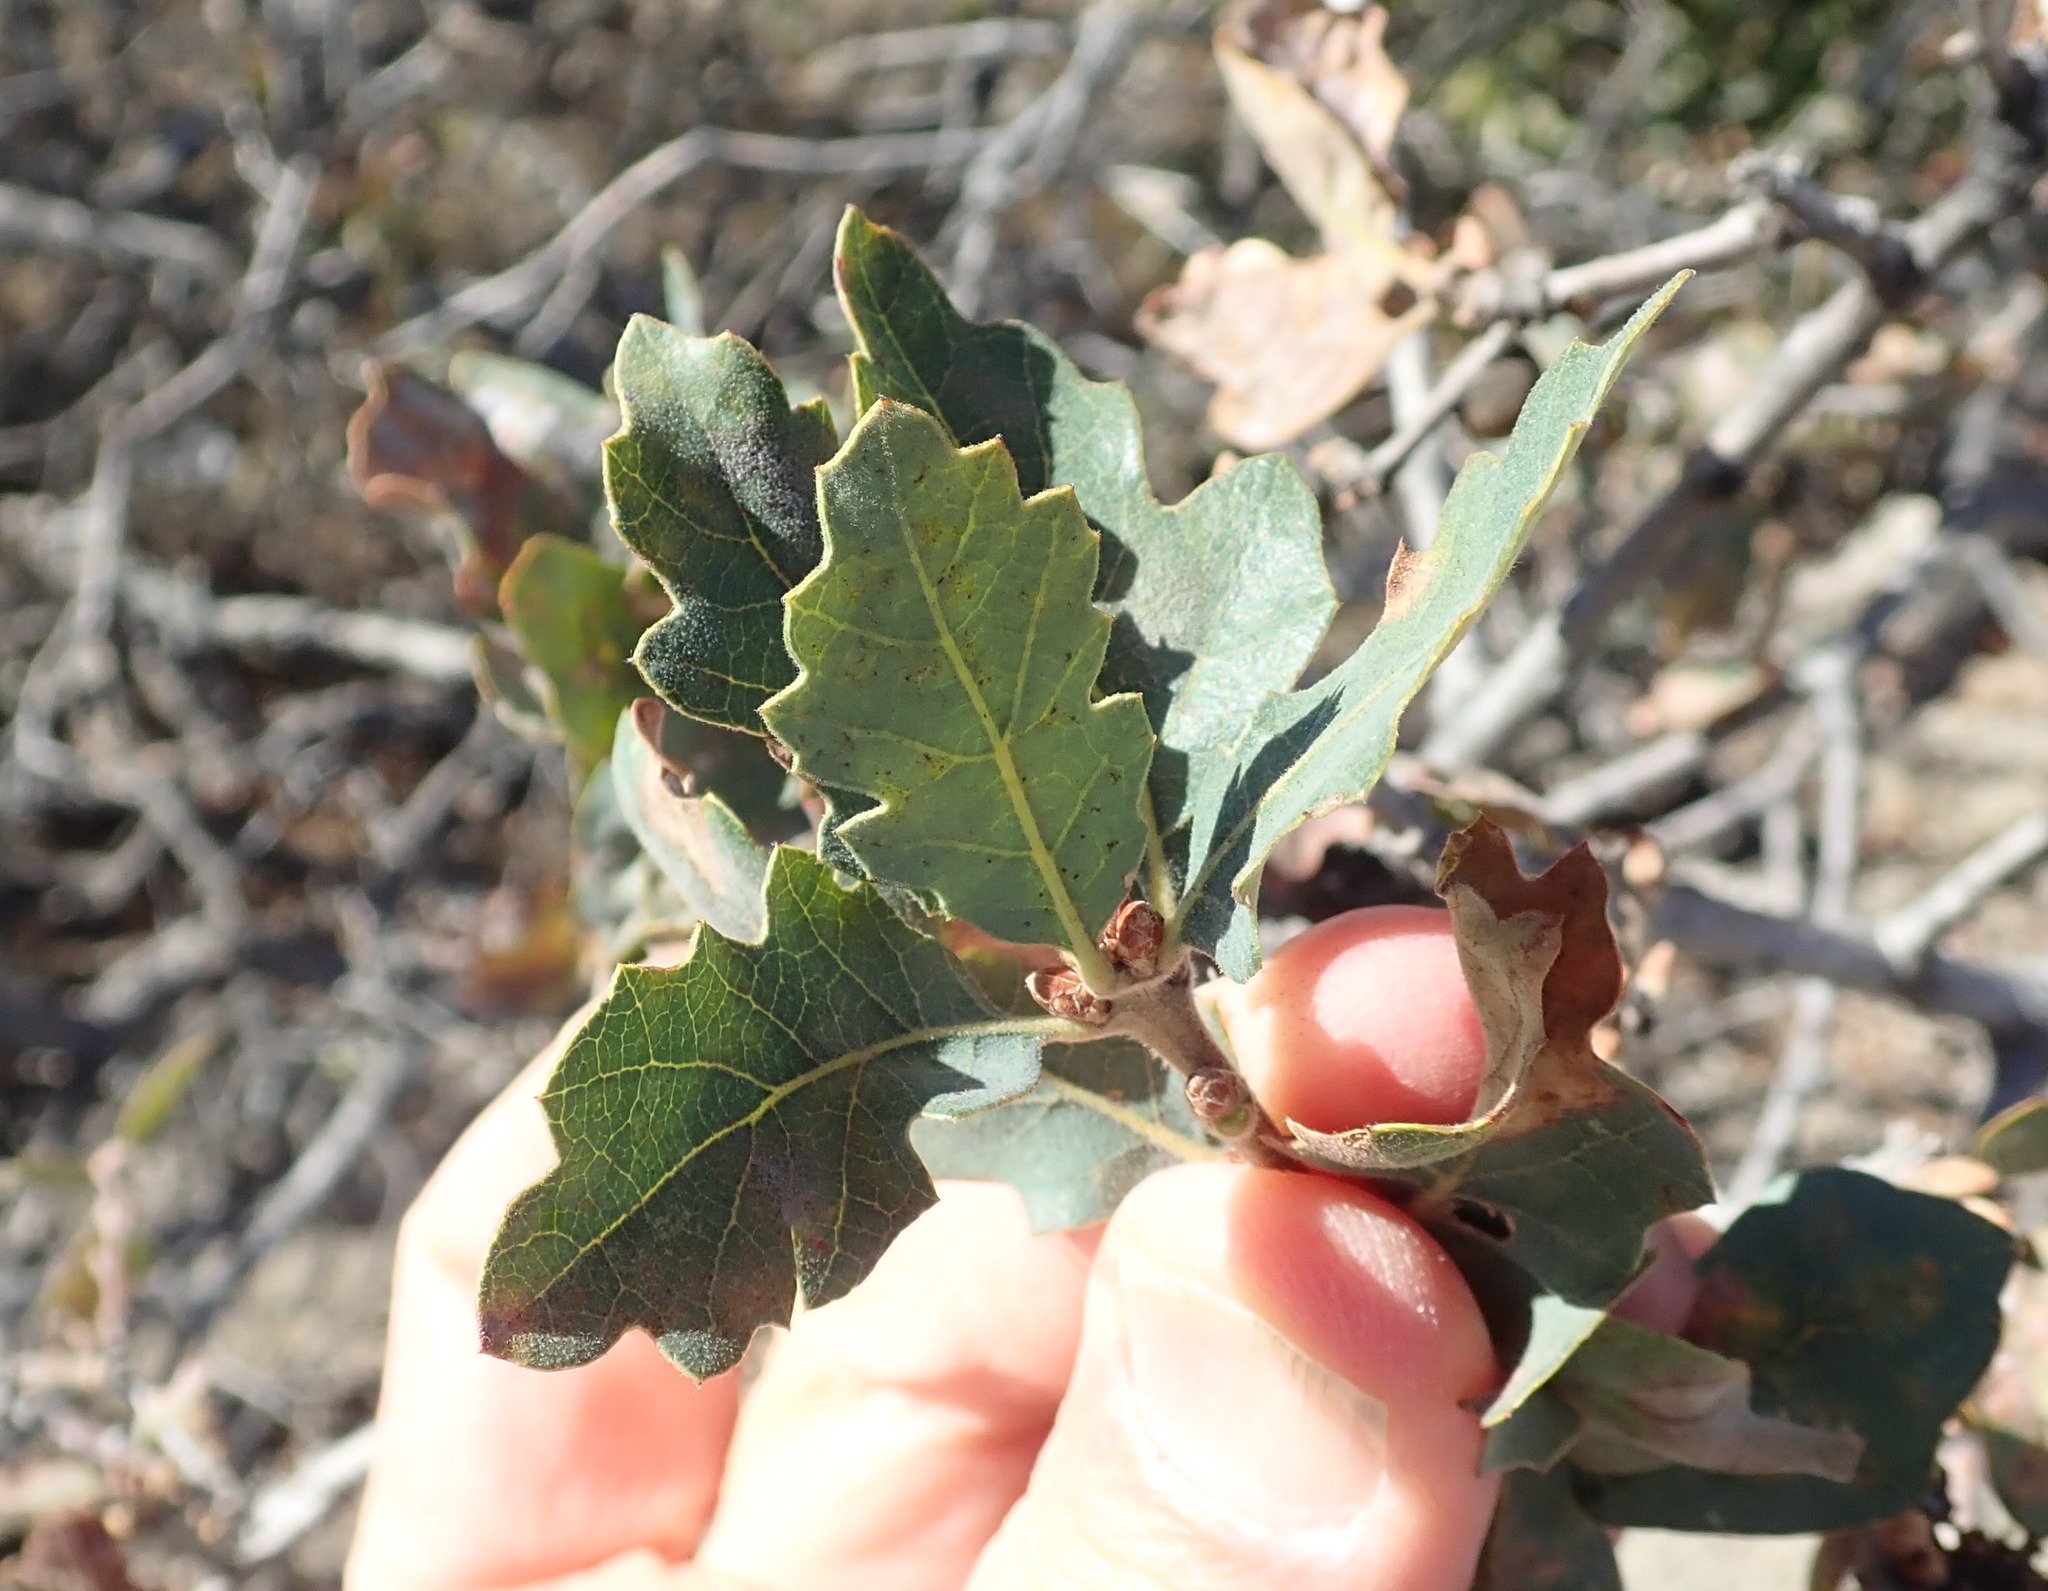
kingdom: Plantae
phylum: Tracheophyta
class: Magnoliopsida
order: Fagales
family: Fagaceae
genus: Quercus
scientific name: Quercus douglasii
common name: Blue oak
